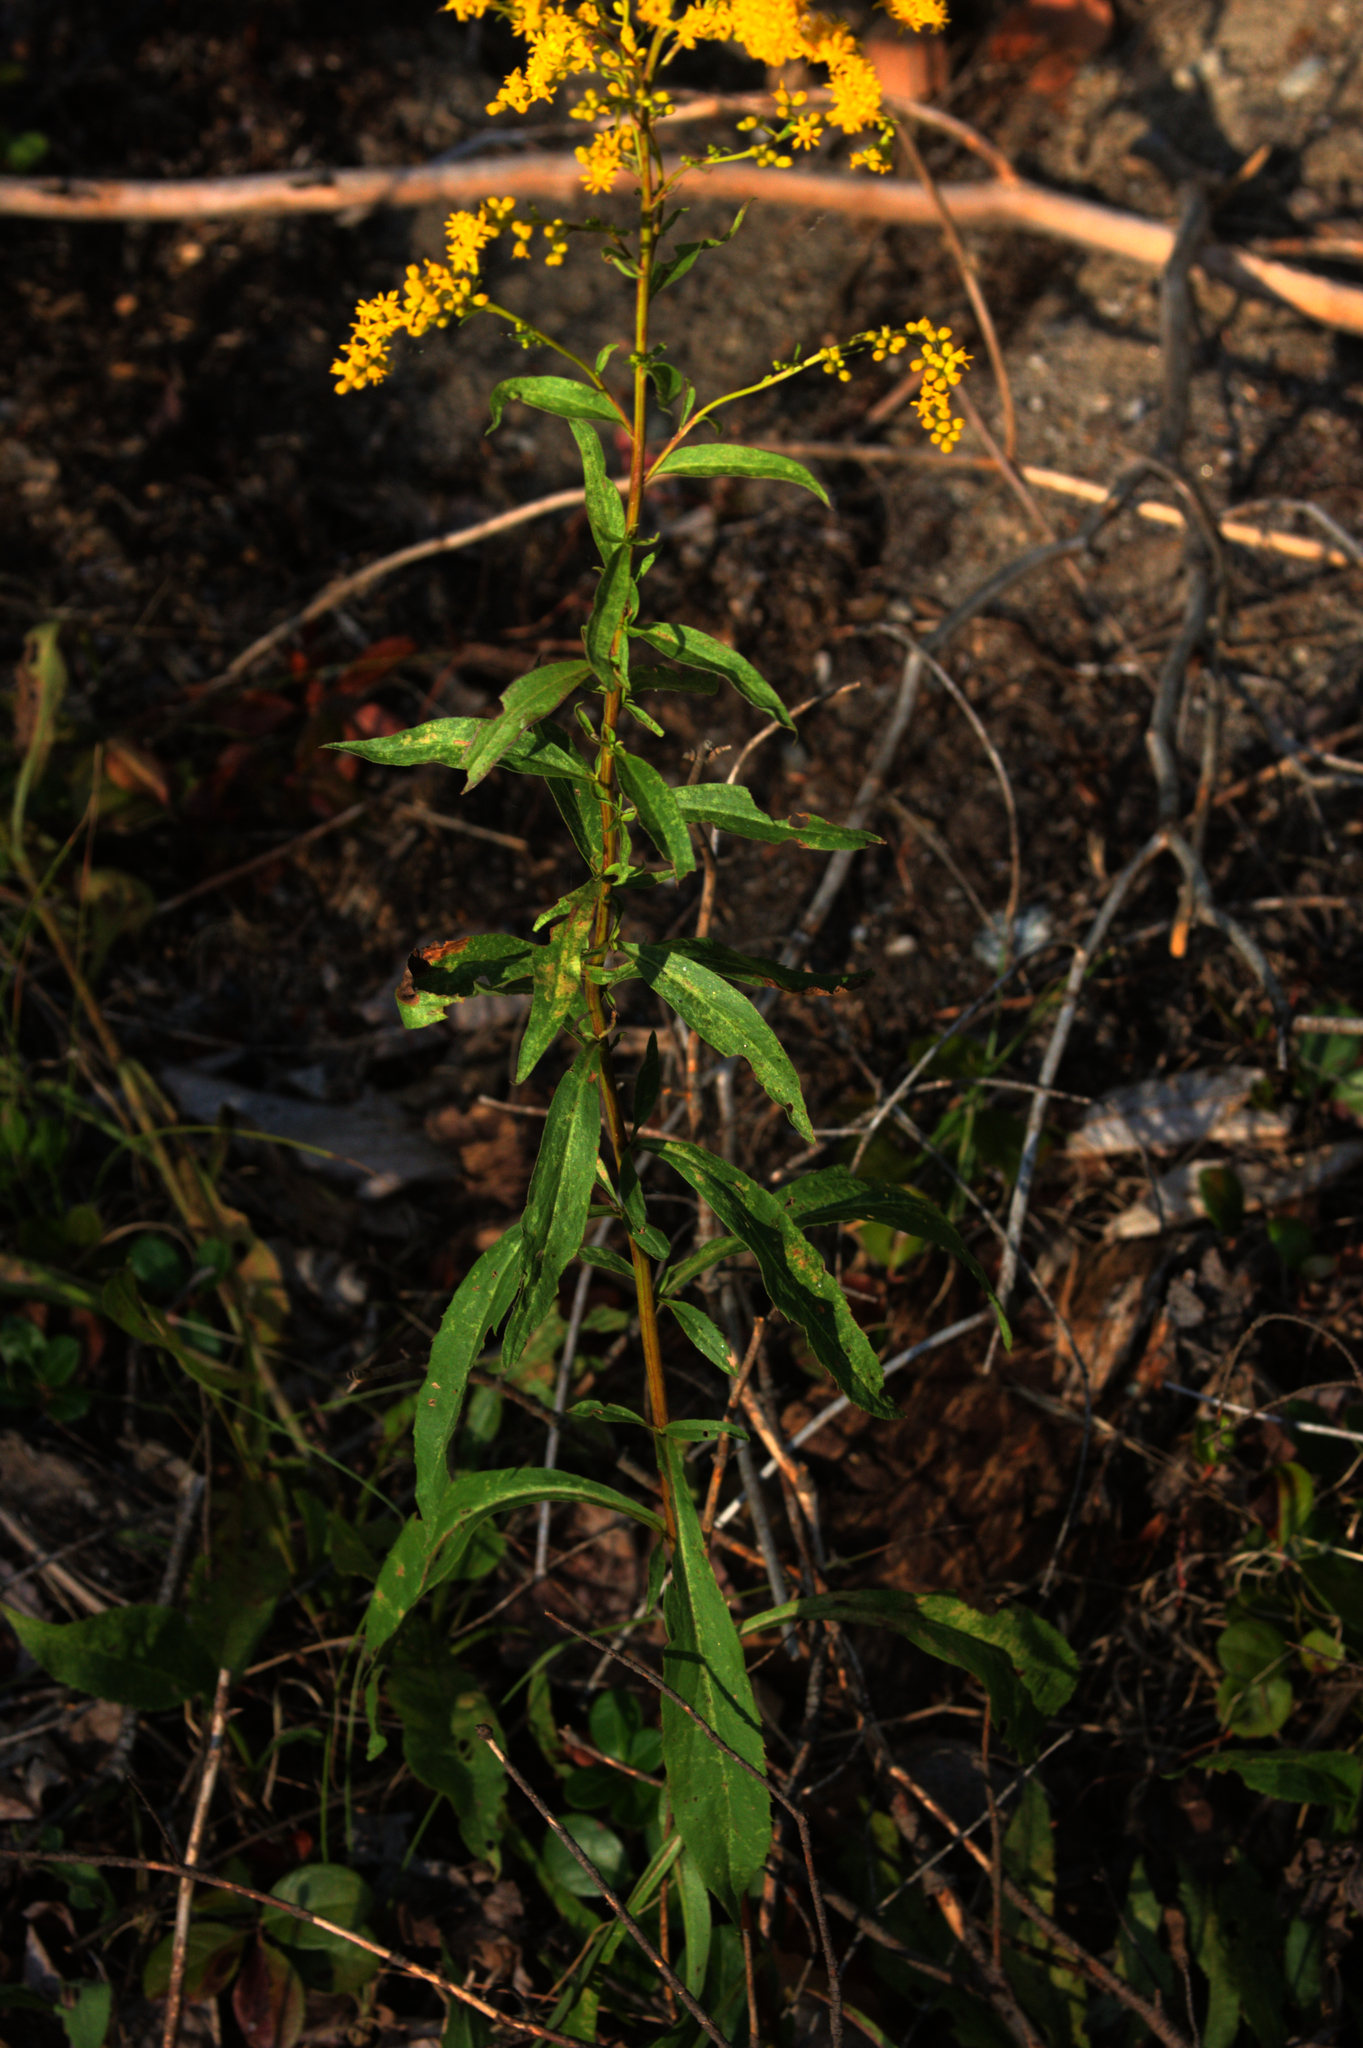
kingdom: Plantae
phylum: Tracheophyta
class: Magnoliopsida
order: Asterales
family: Asteraceae
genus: Solidago
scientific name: Solidago juncea
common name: Early goldenrod
